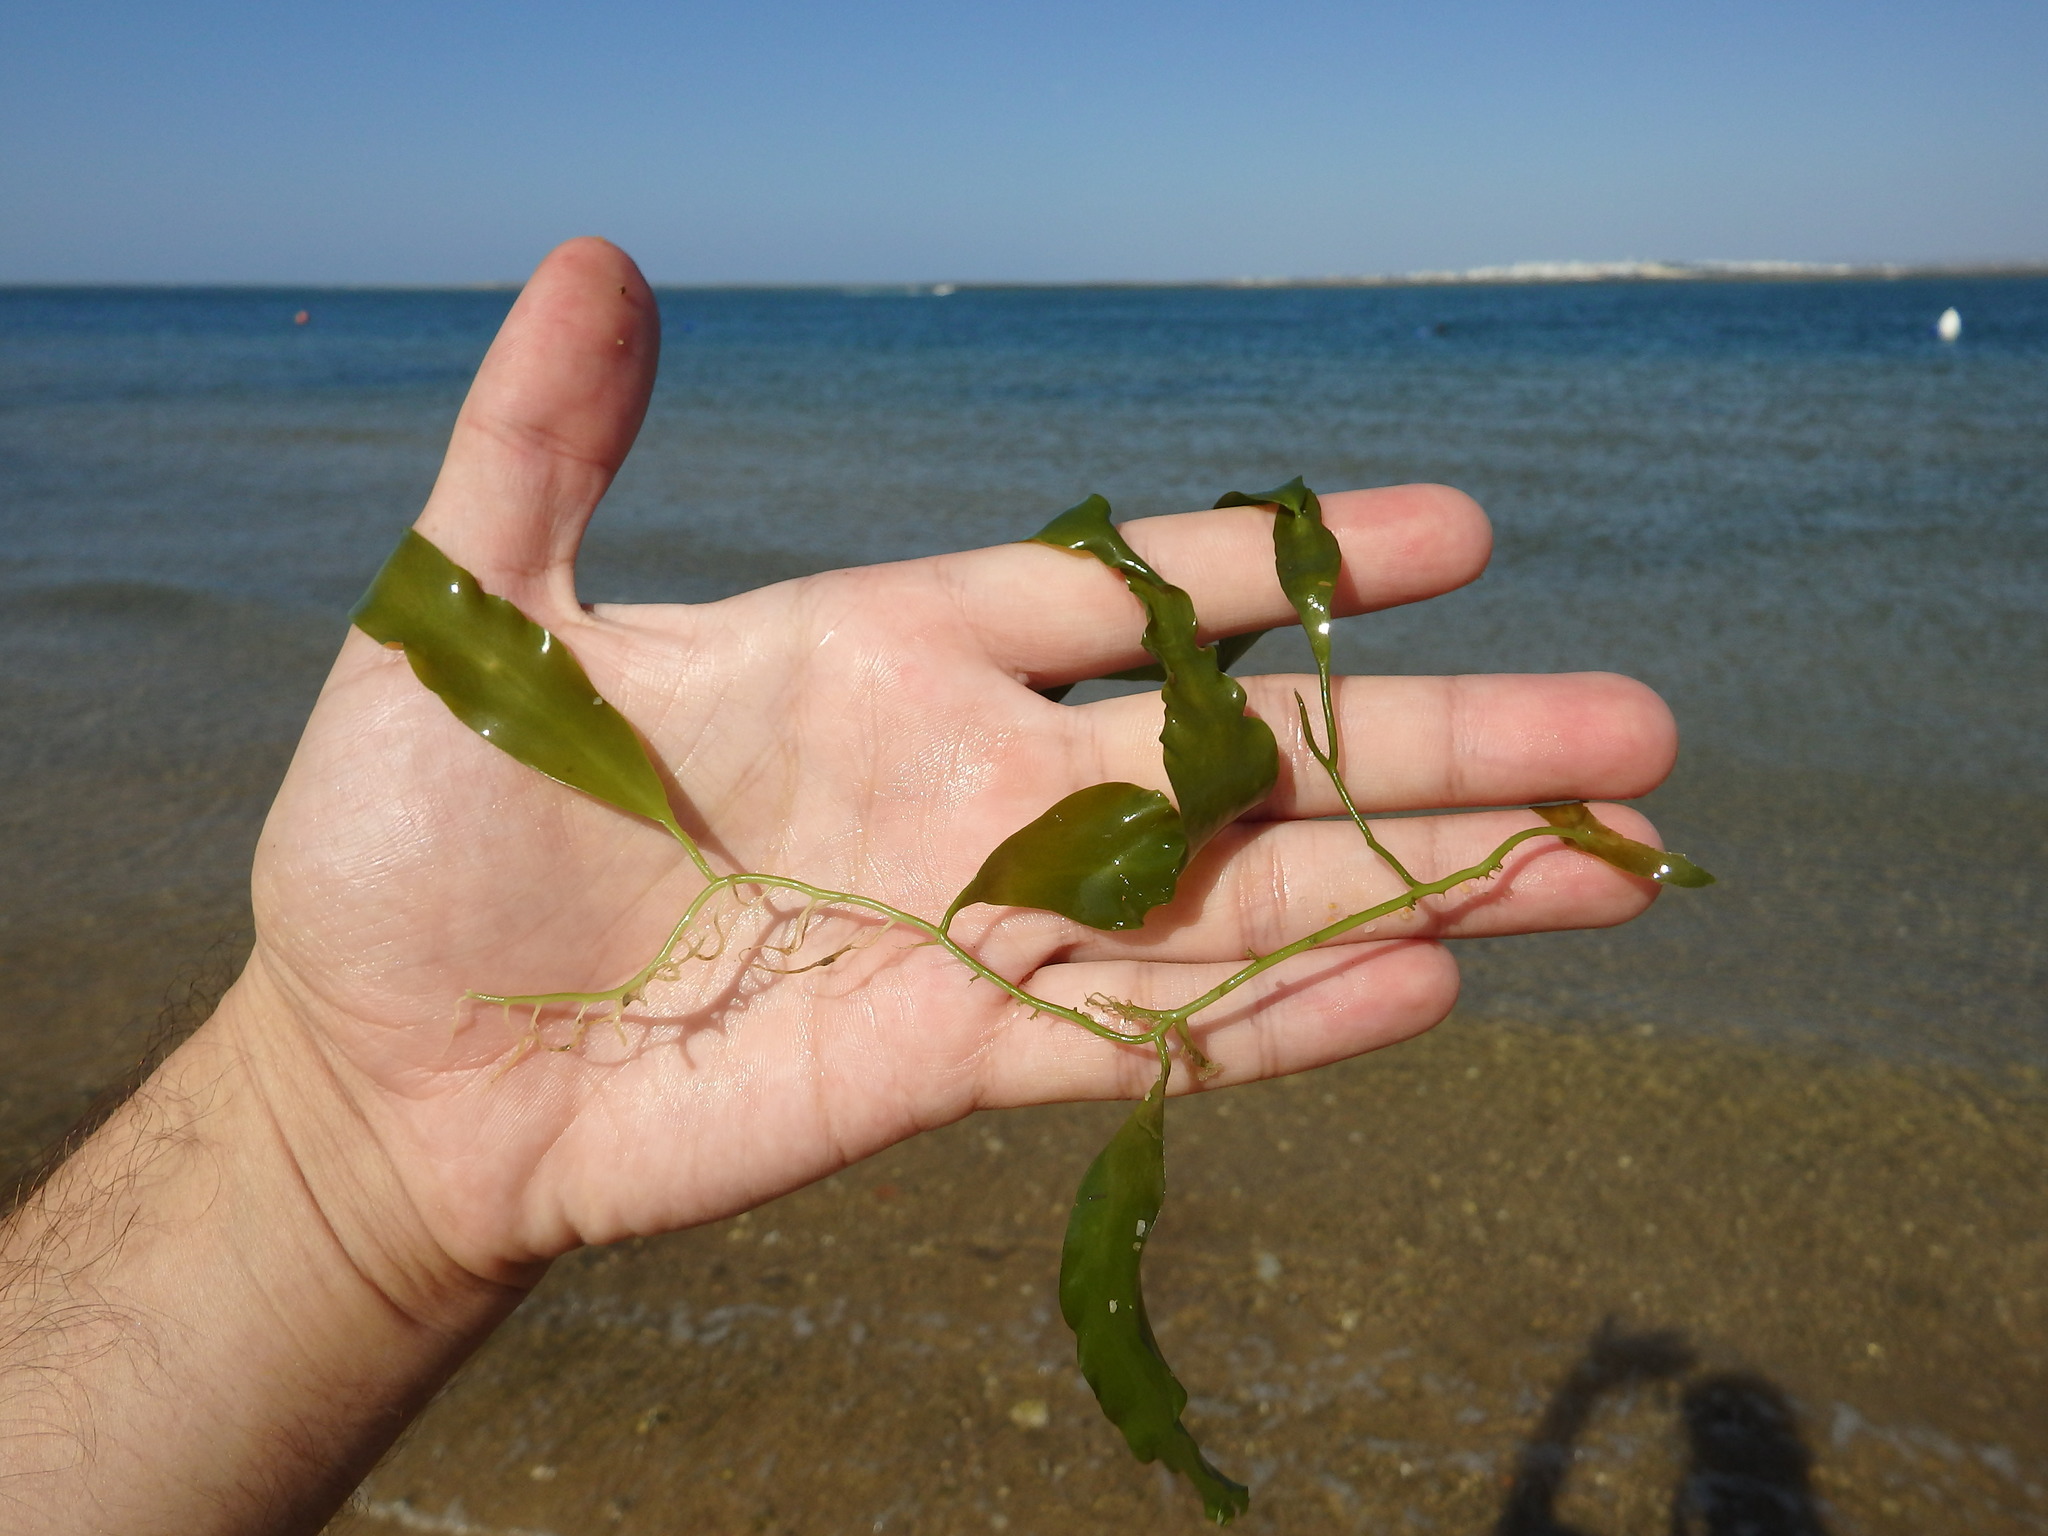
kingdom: Plantae
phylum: Chlorophyta
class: Ulvophyceae
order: Bryopsidales
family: Caulerpaceae
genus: Caulerpa
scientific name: Caulerpa prolifera
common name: Oval-blade algae
